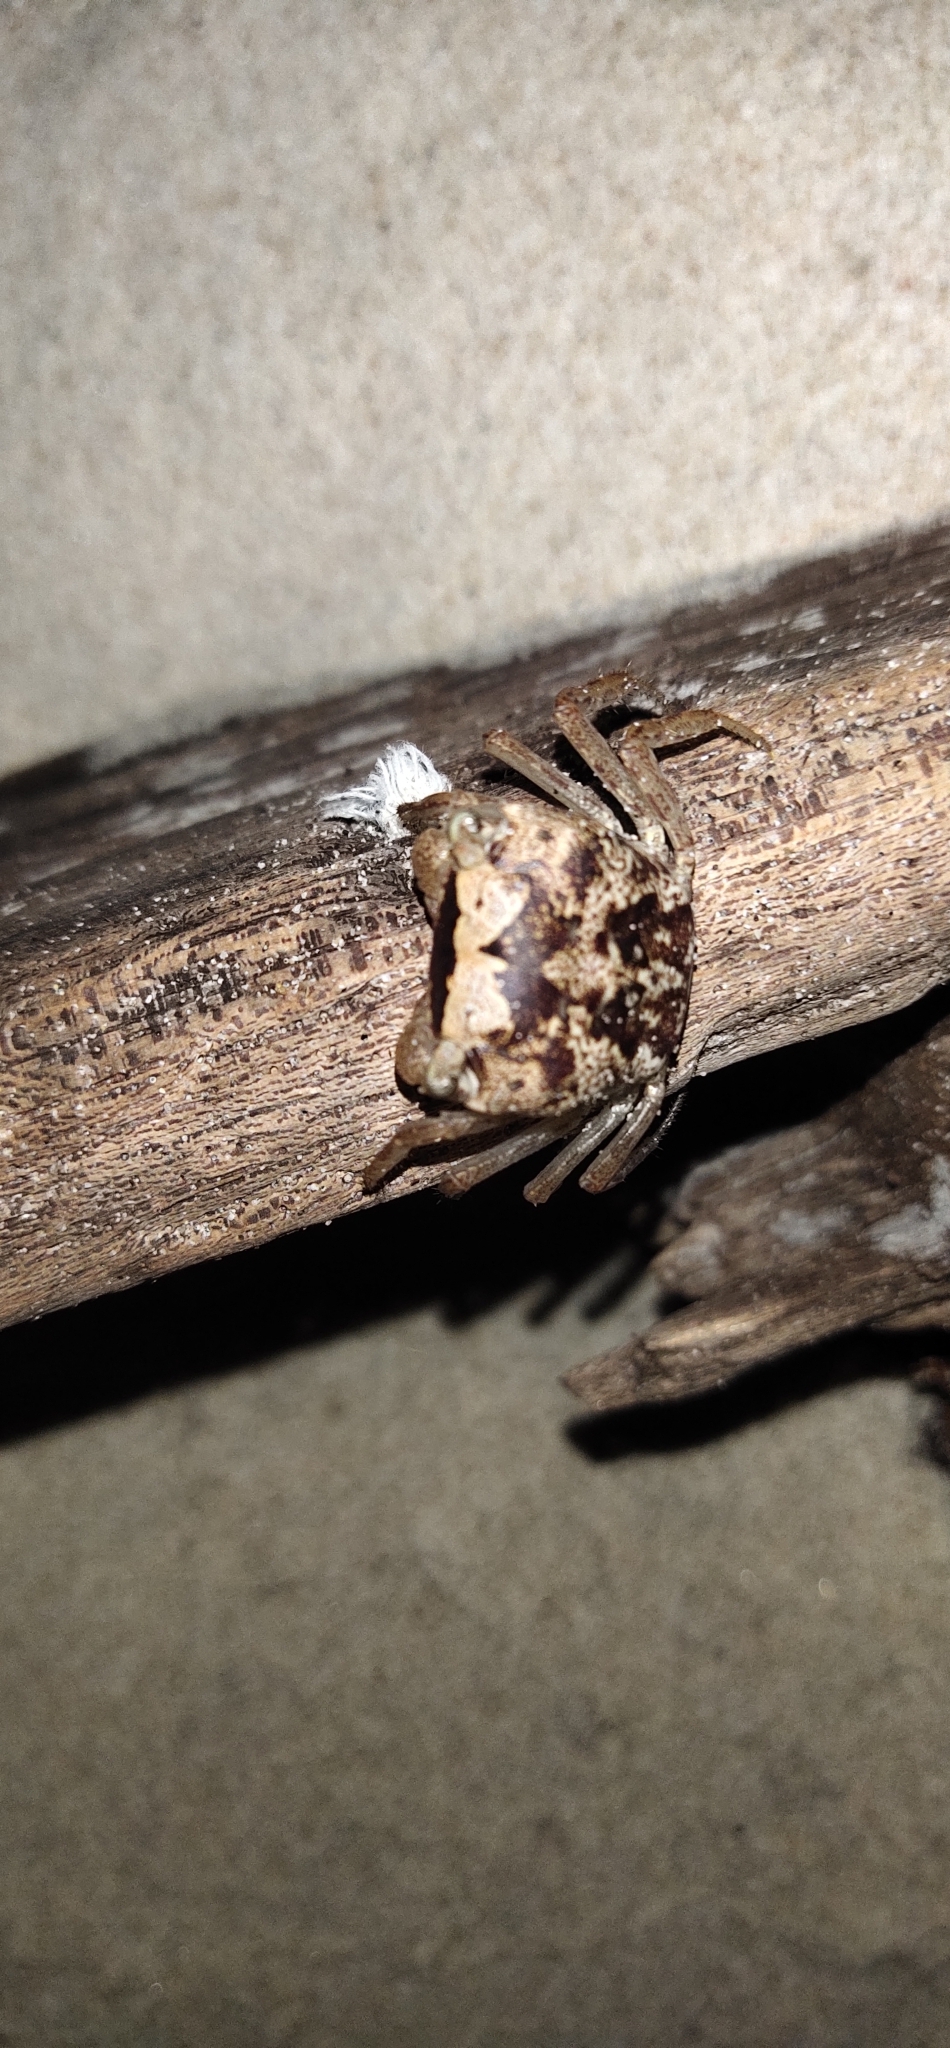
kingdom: Animalia
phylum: Arthropoda
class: Malacostraca
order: Decapoda
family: Sesarmidae
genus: Metasesarma
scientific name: Metasesarma obesum
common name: Marble crab
